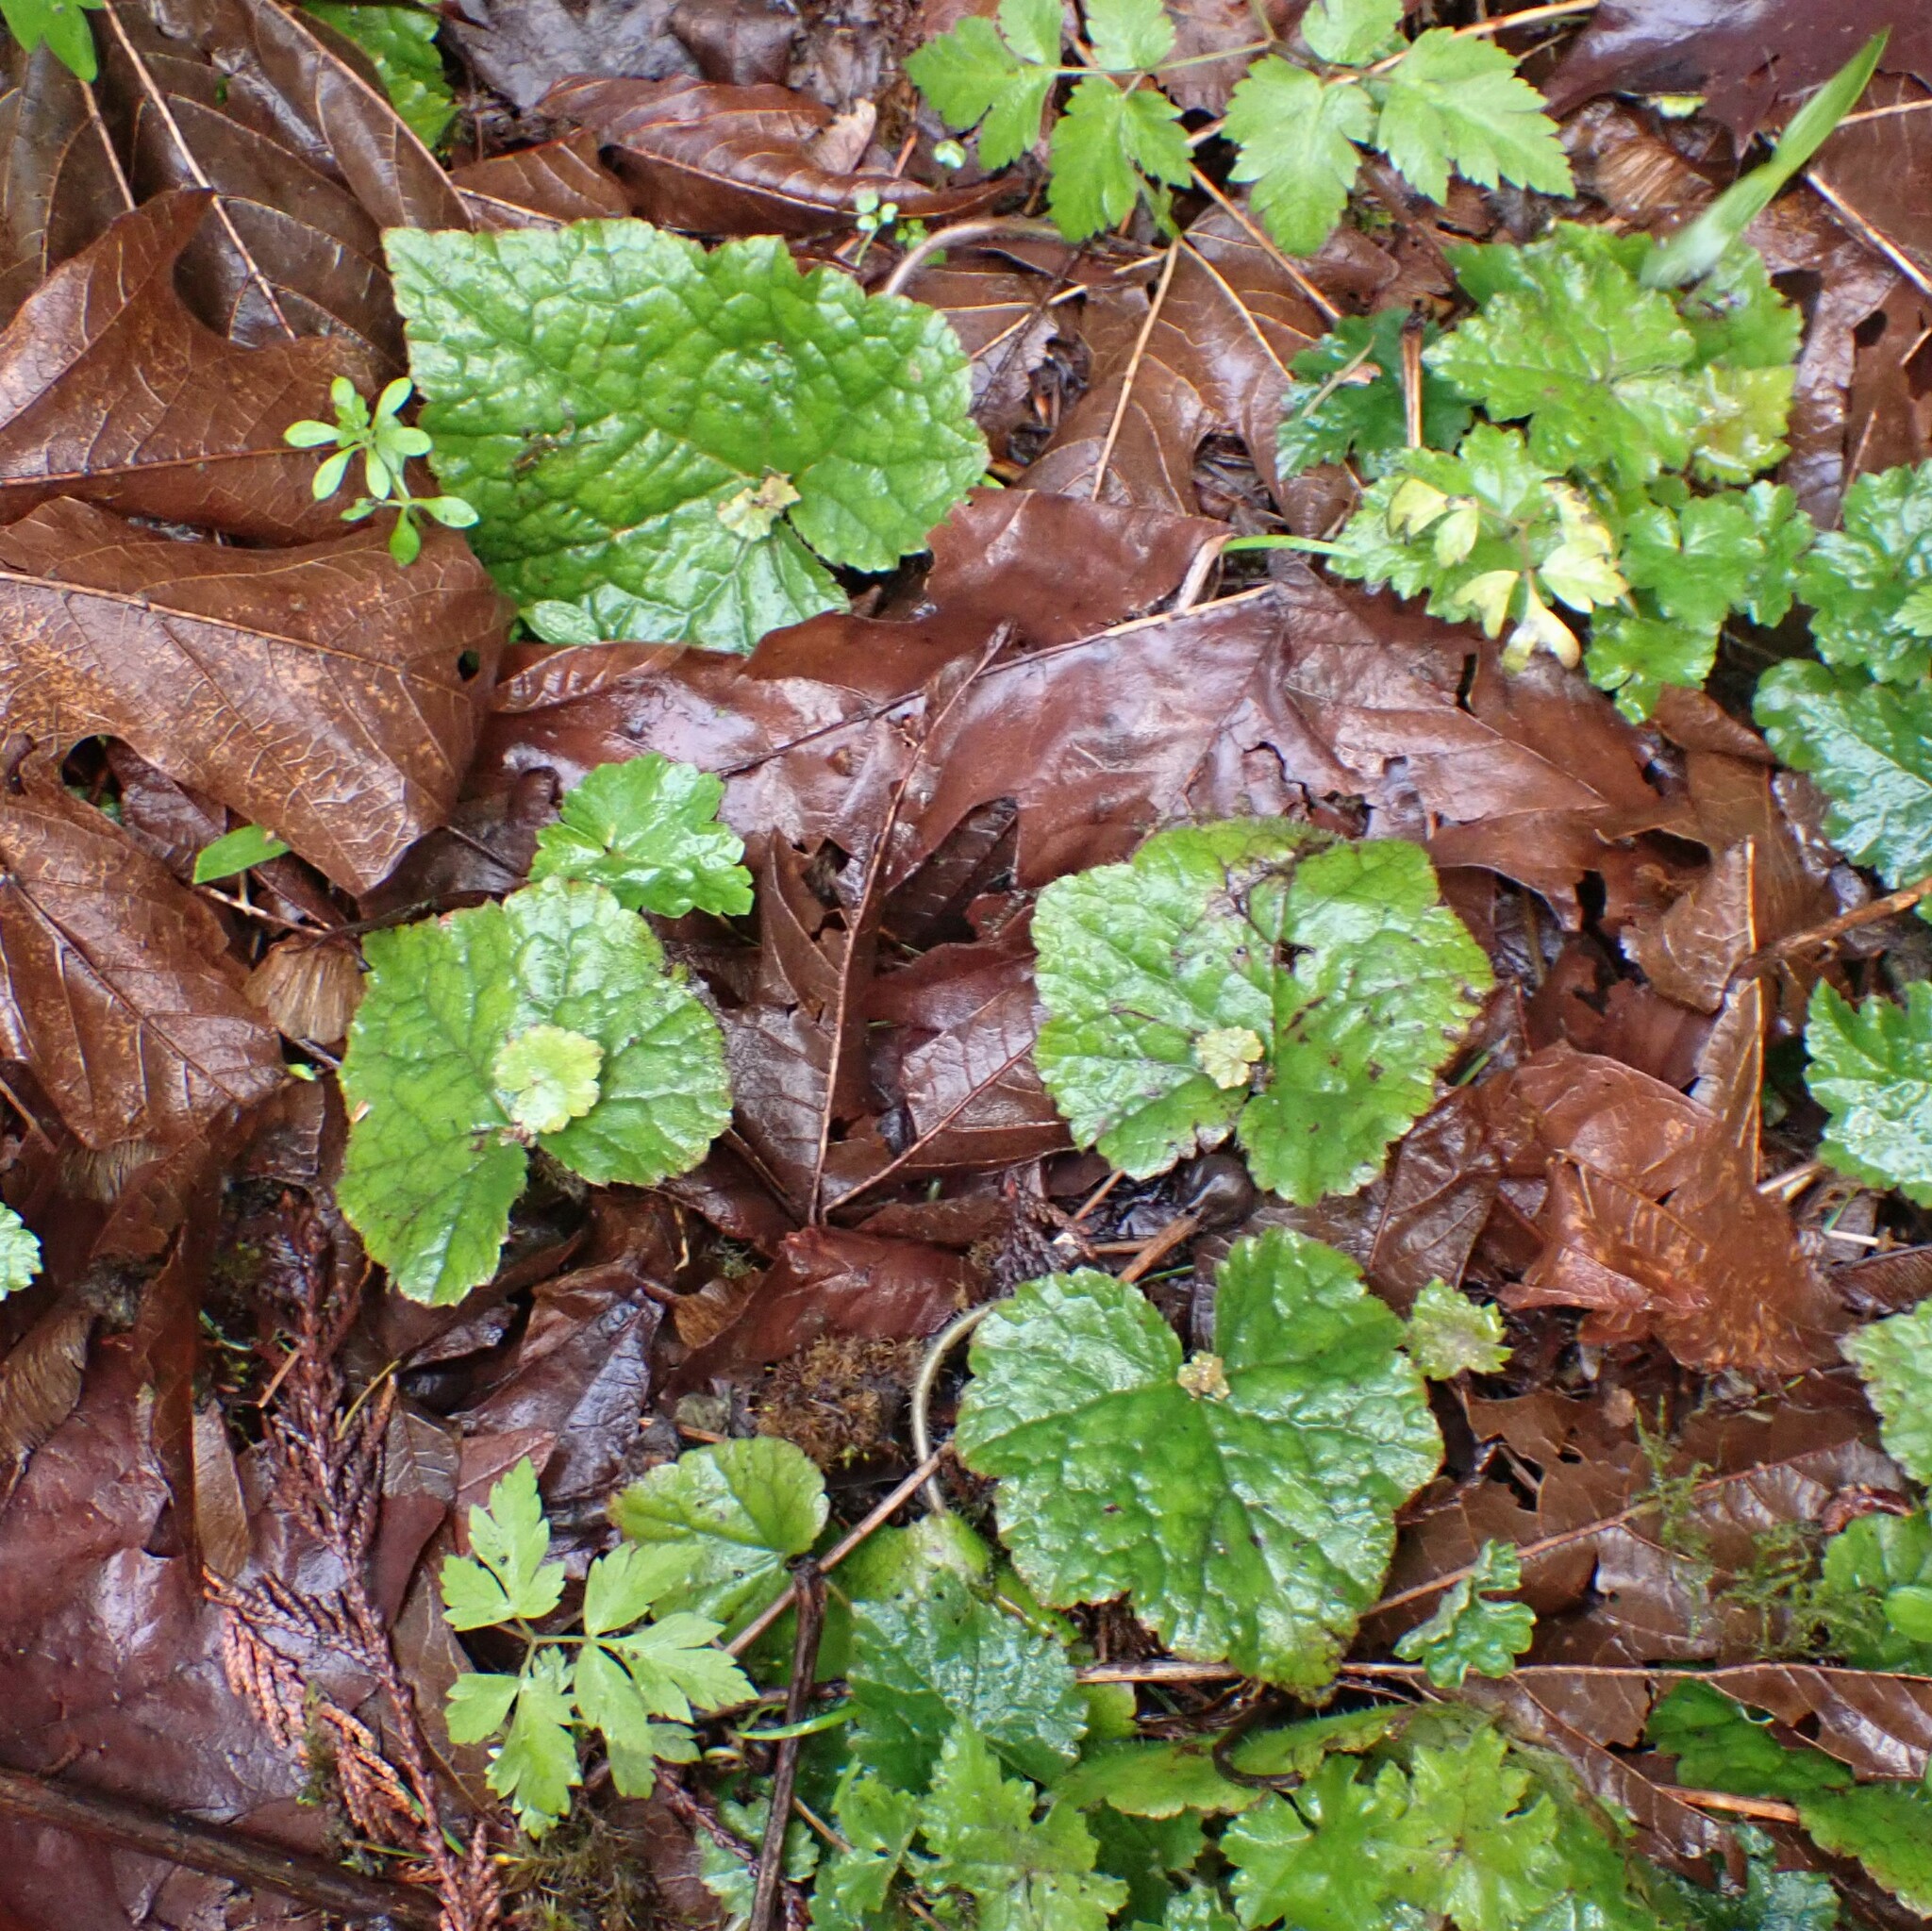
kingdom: Plantae
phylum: Tracheophyta
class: Magnoliopsida
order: Saxifragales
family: Saxifragaceae
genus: Tolmiea
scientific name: Tolmiea menziesii
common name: Pick-a-back-plant
